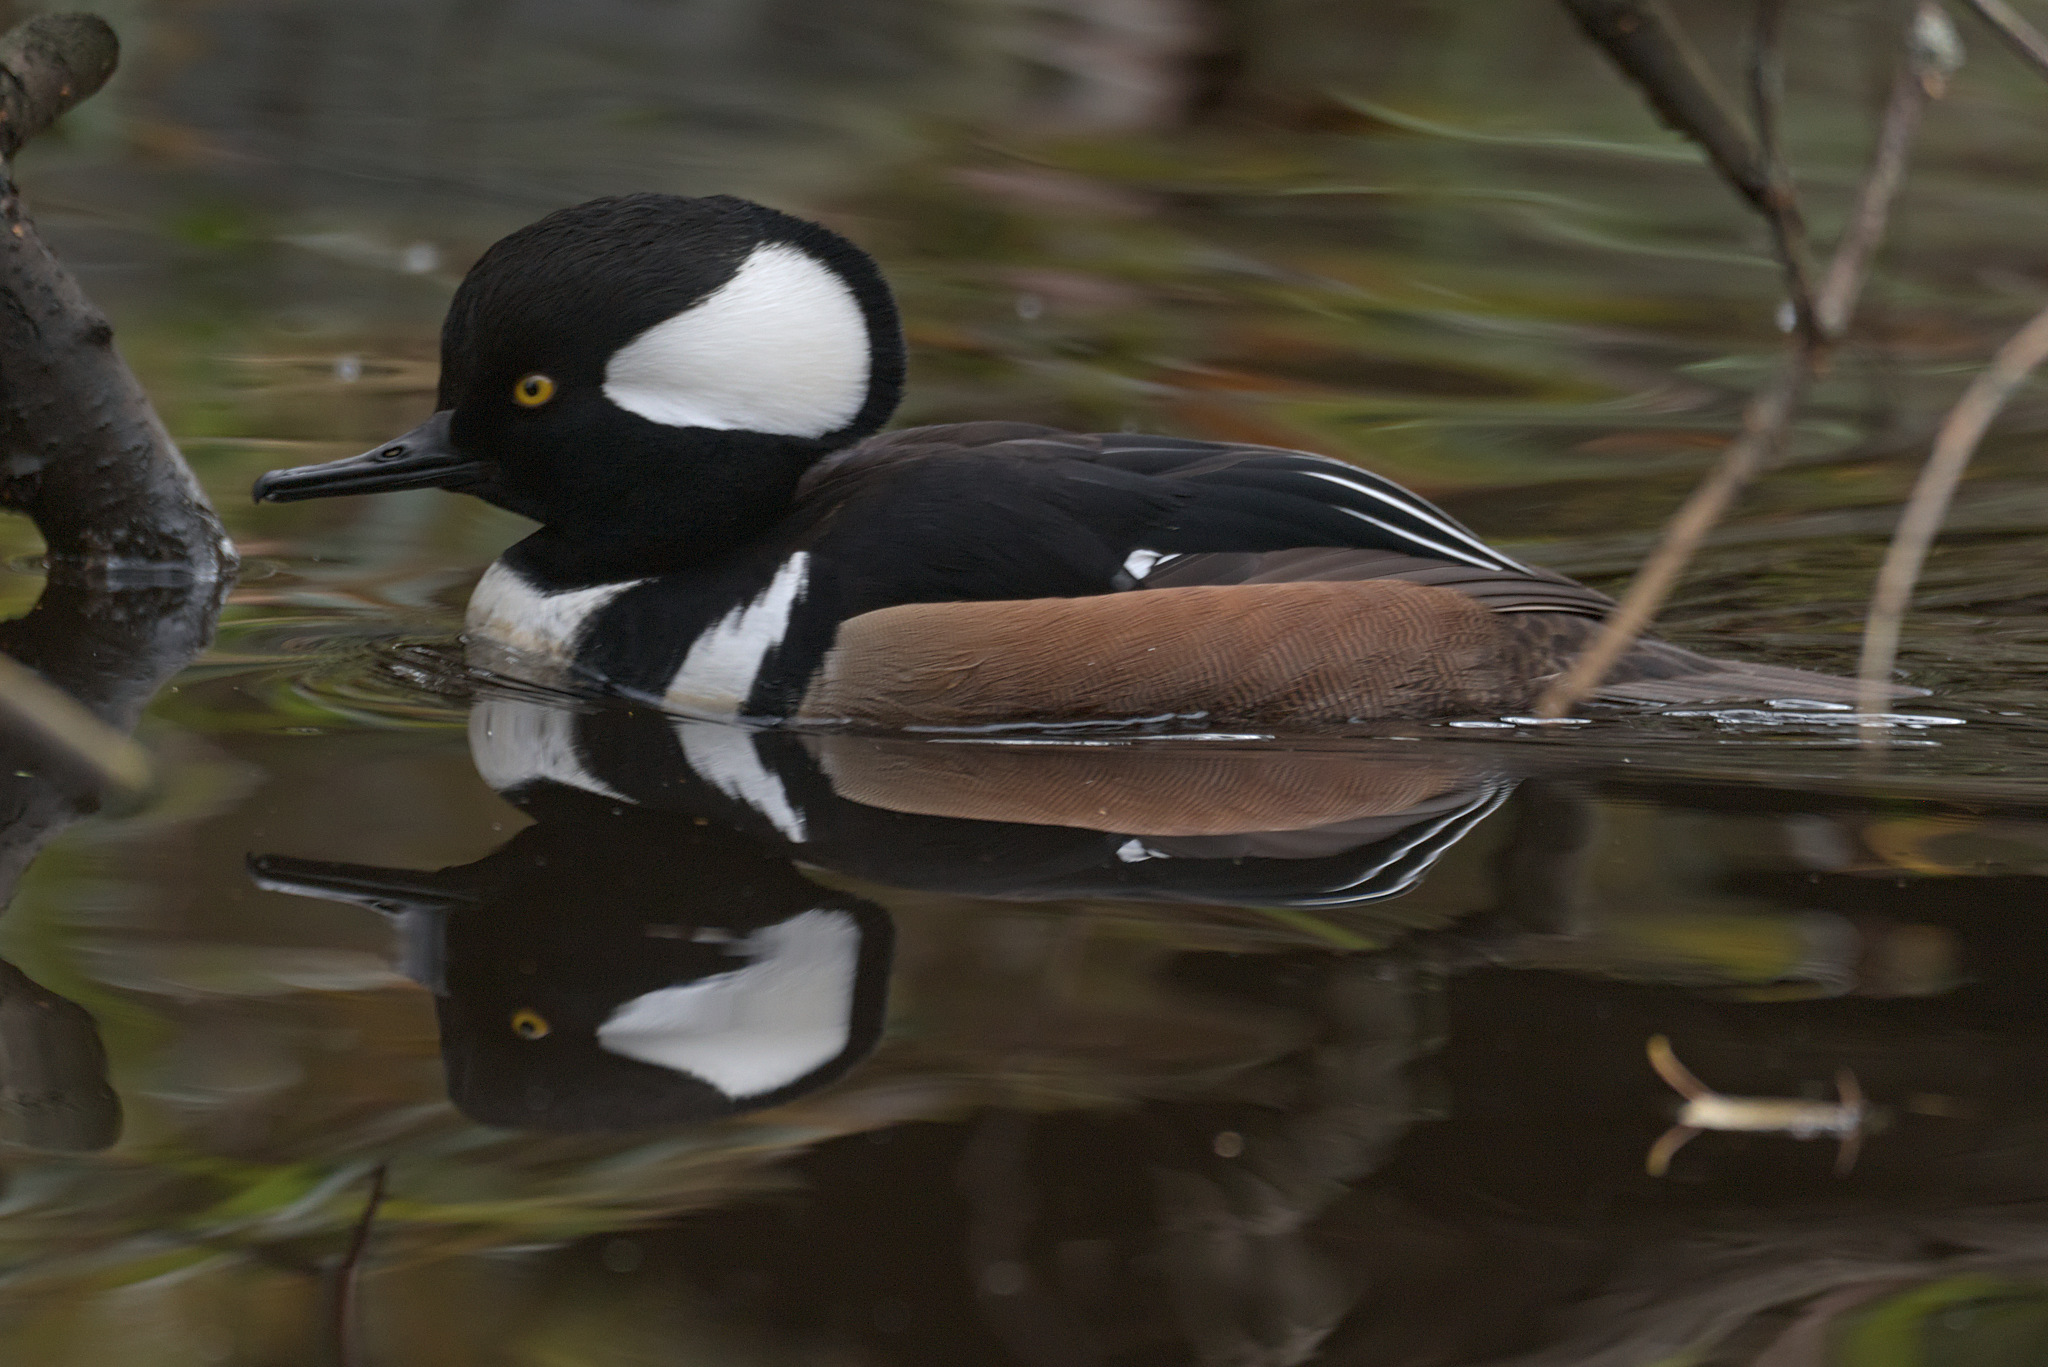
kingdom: Animalia
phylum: Chordata
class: Aves
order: Anseriformes
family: Anatidae
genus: Lophodytes
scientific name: Lophodytes cucullatus
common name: Hooded merganser
